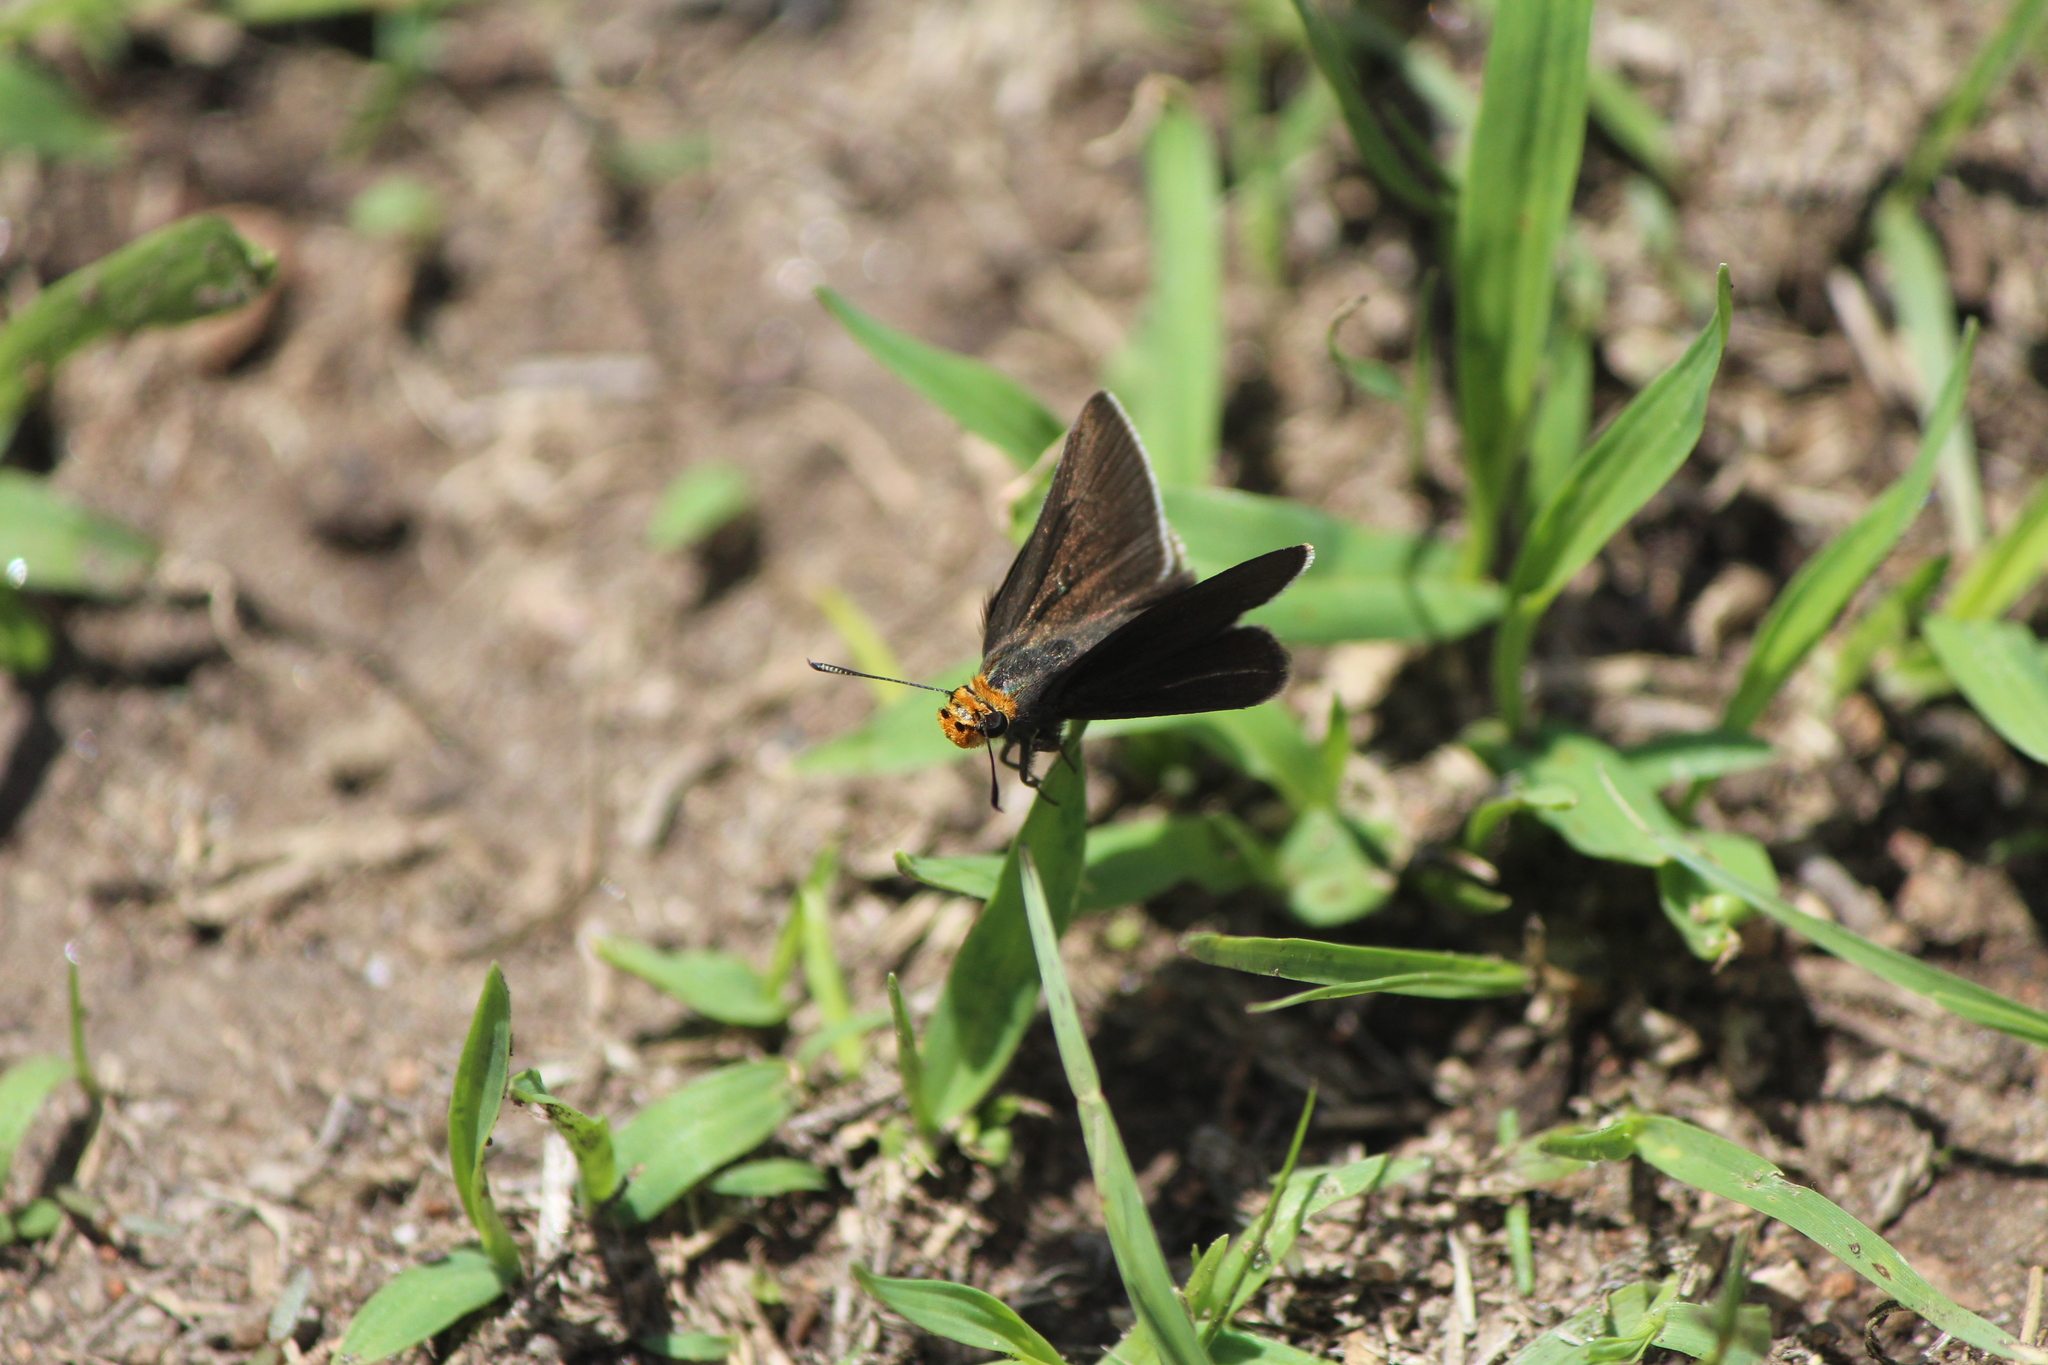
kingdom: Animalia
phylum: Arthropoda
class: Insecta
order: Lepidoptera
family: Hesperiidae
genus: Mastor
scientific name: Mastor phylace
